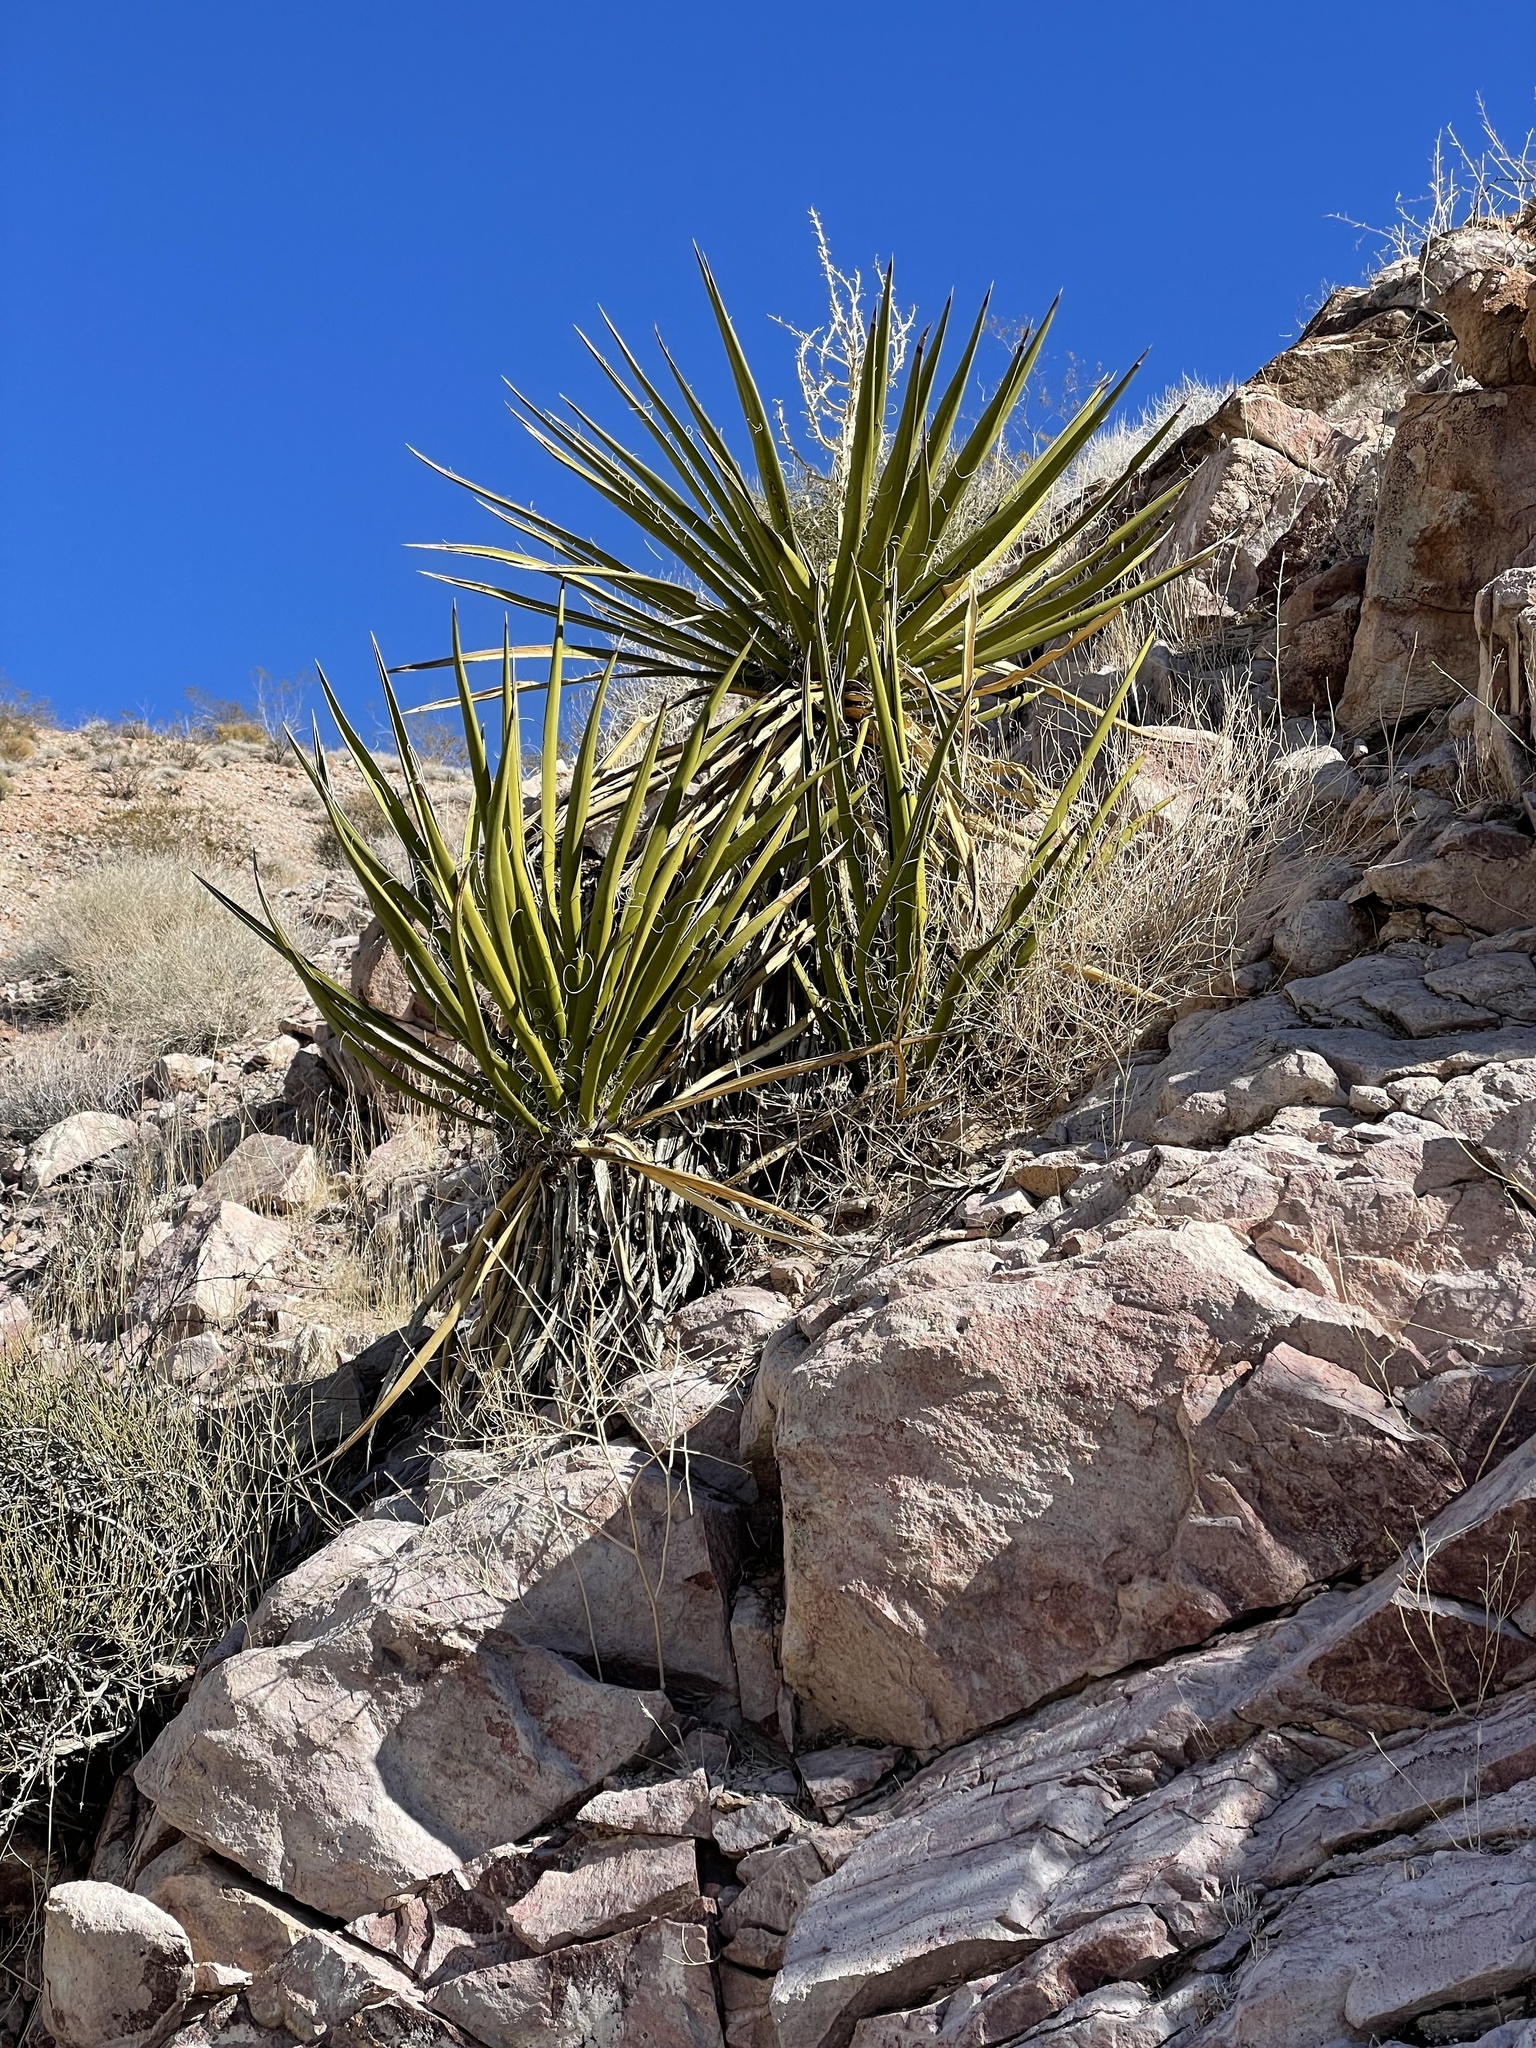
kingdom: Plantae
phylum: Tracheophyta
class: Liliopsida
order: Asparagales
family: Asparagaceae
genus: Yucca
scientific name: Yucca schidigera
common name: Mojave yucca
